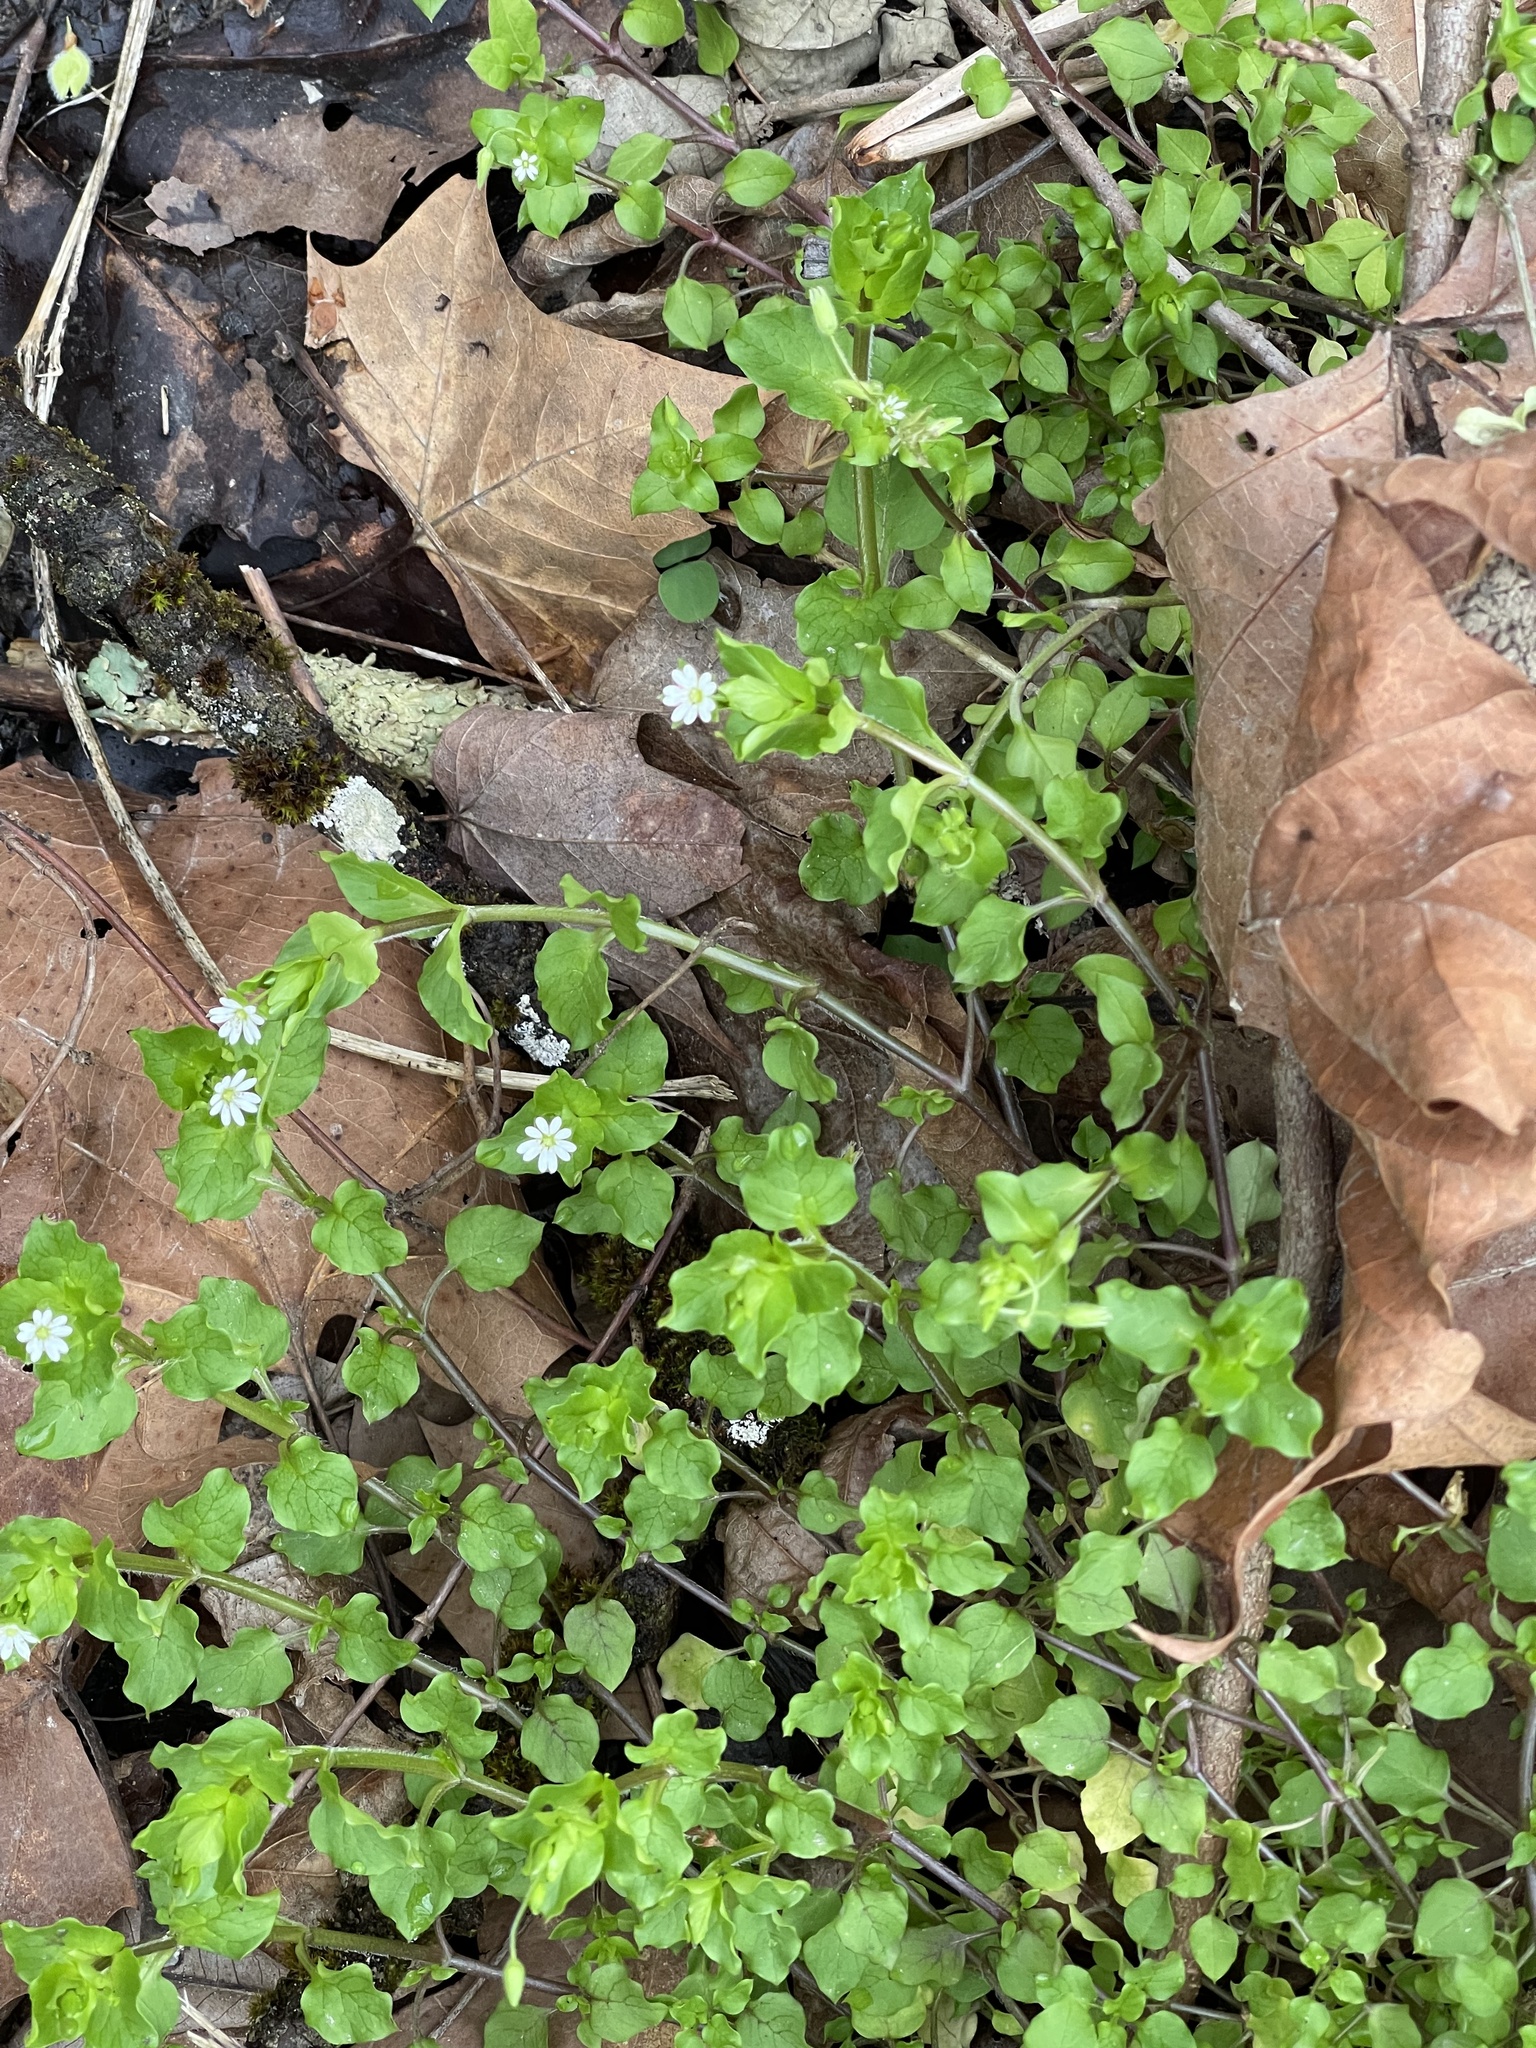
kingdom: Plantae
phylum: Tracheophyta
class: Magnoliopsida
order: Caryophyllales
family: Caryophyllaceae
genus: Stellaria
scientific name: Stellaria media
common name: Common chickweed
